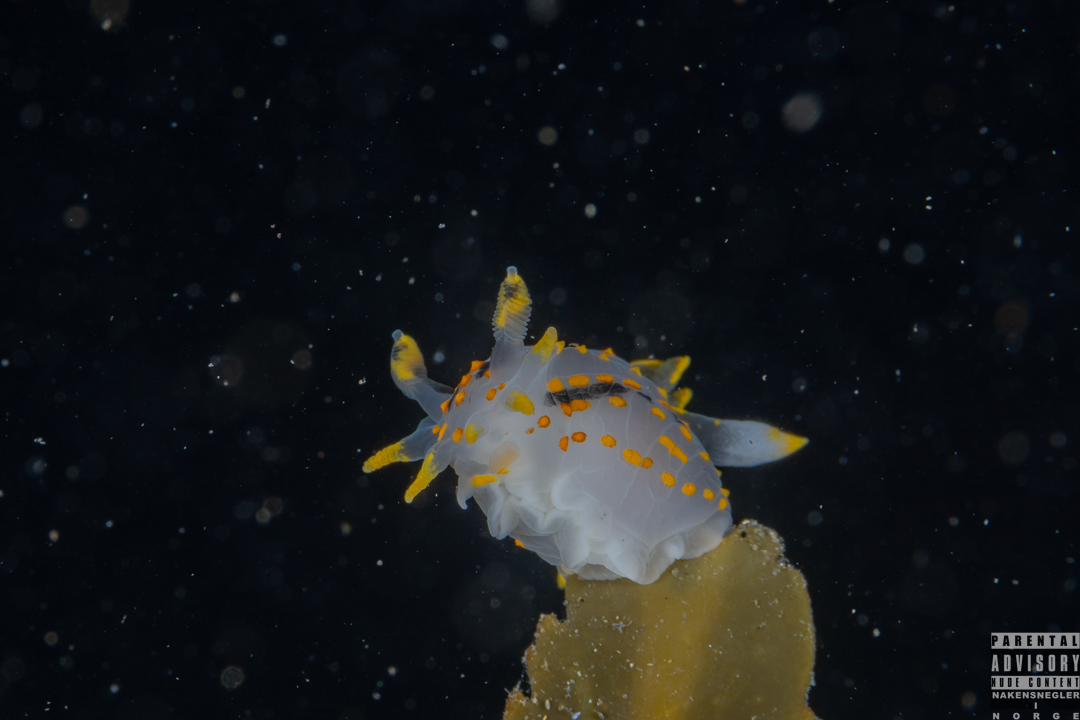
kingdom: Animalia
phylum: Mollusca
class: Gastropoda
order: Nudibranchia
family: Polyceridae
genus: Polycera
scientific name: Polycera quadrilineata
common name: Four-striped polycera
